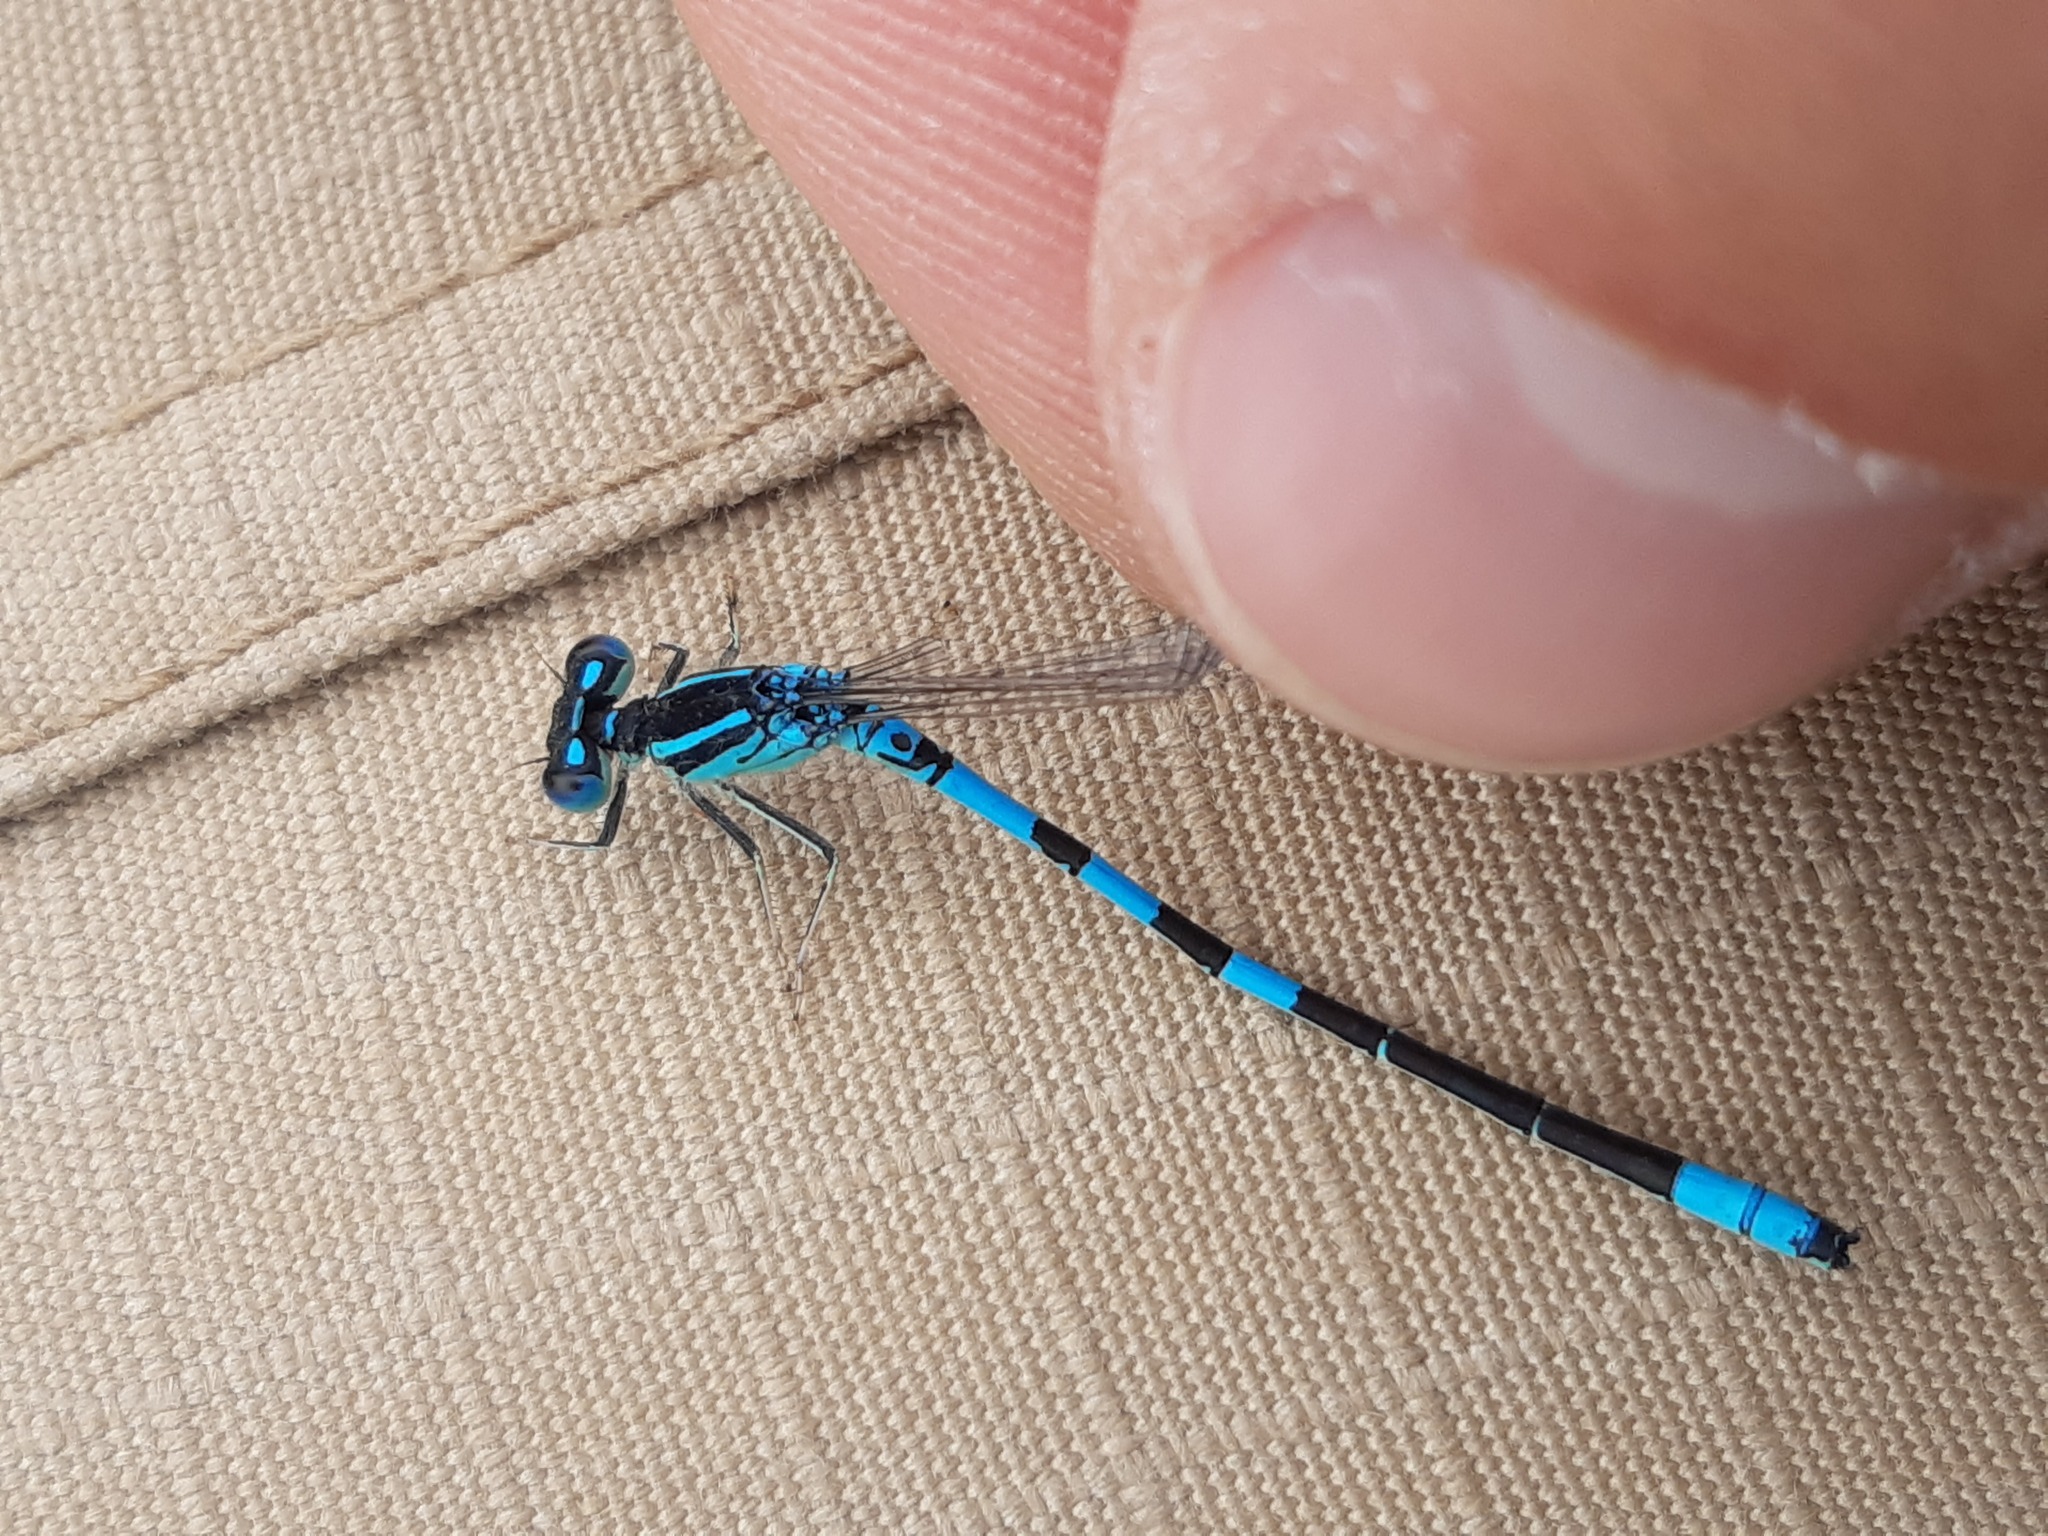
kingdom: Animalia
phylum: Arthropoda
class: Insecta
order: Odonata
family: Coenagrionidae
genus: Coenagrion
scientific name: Coenagrion scitulum
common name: Dainty bluet
